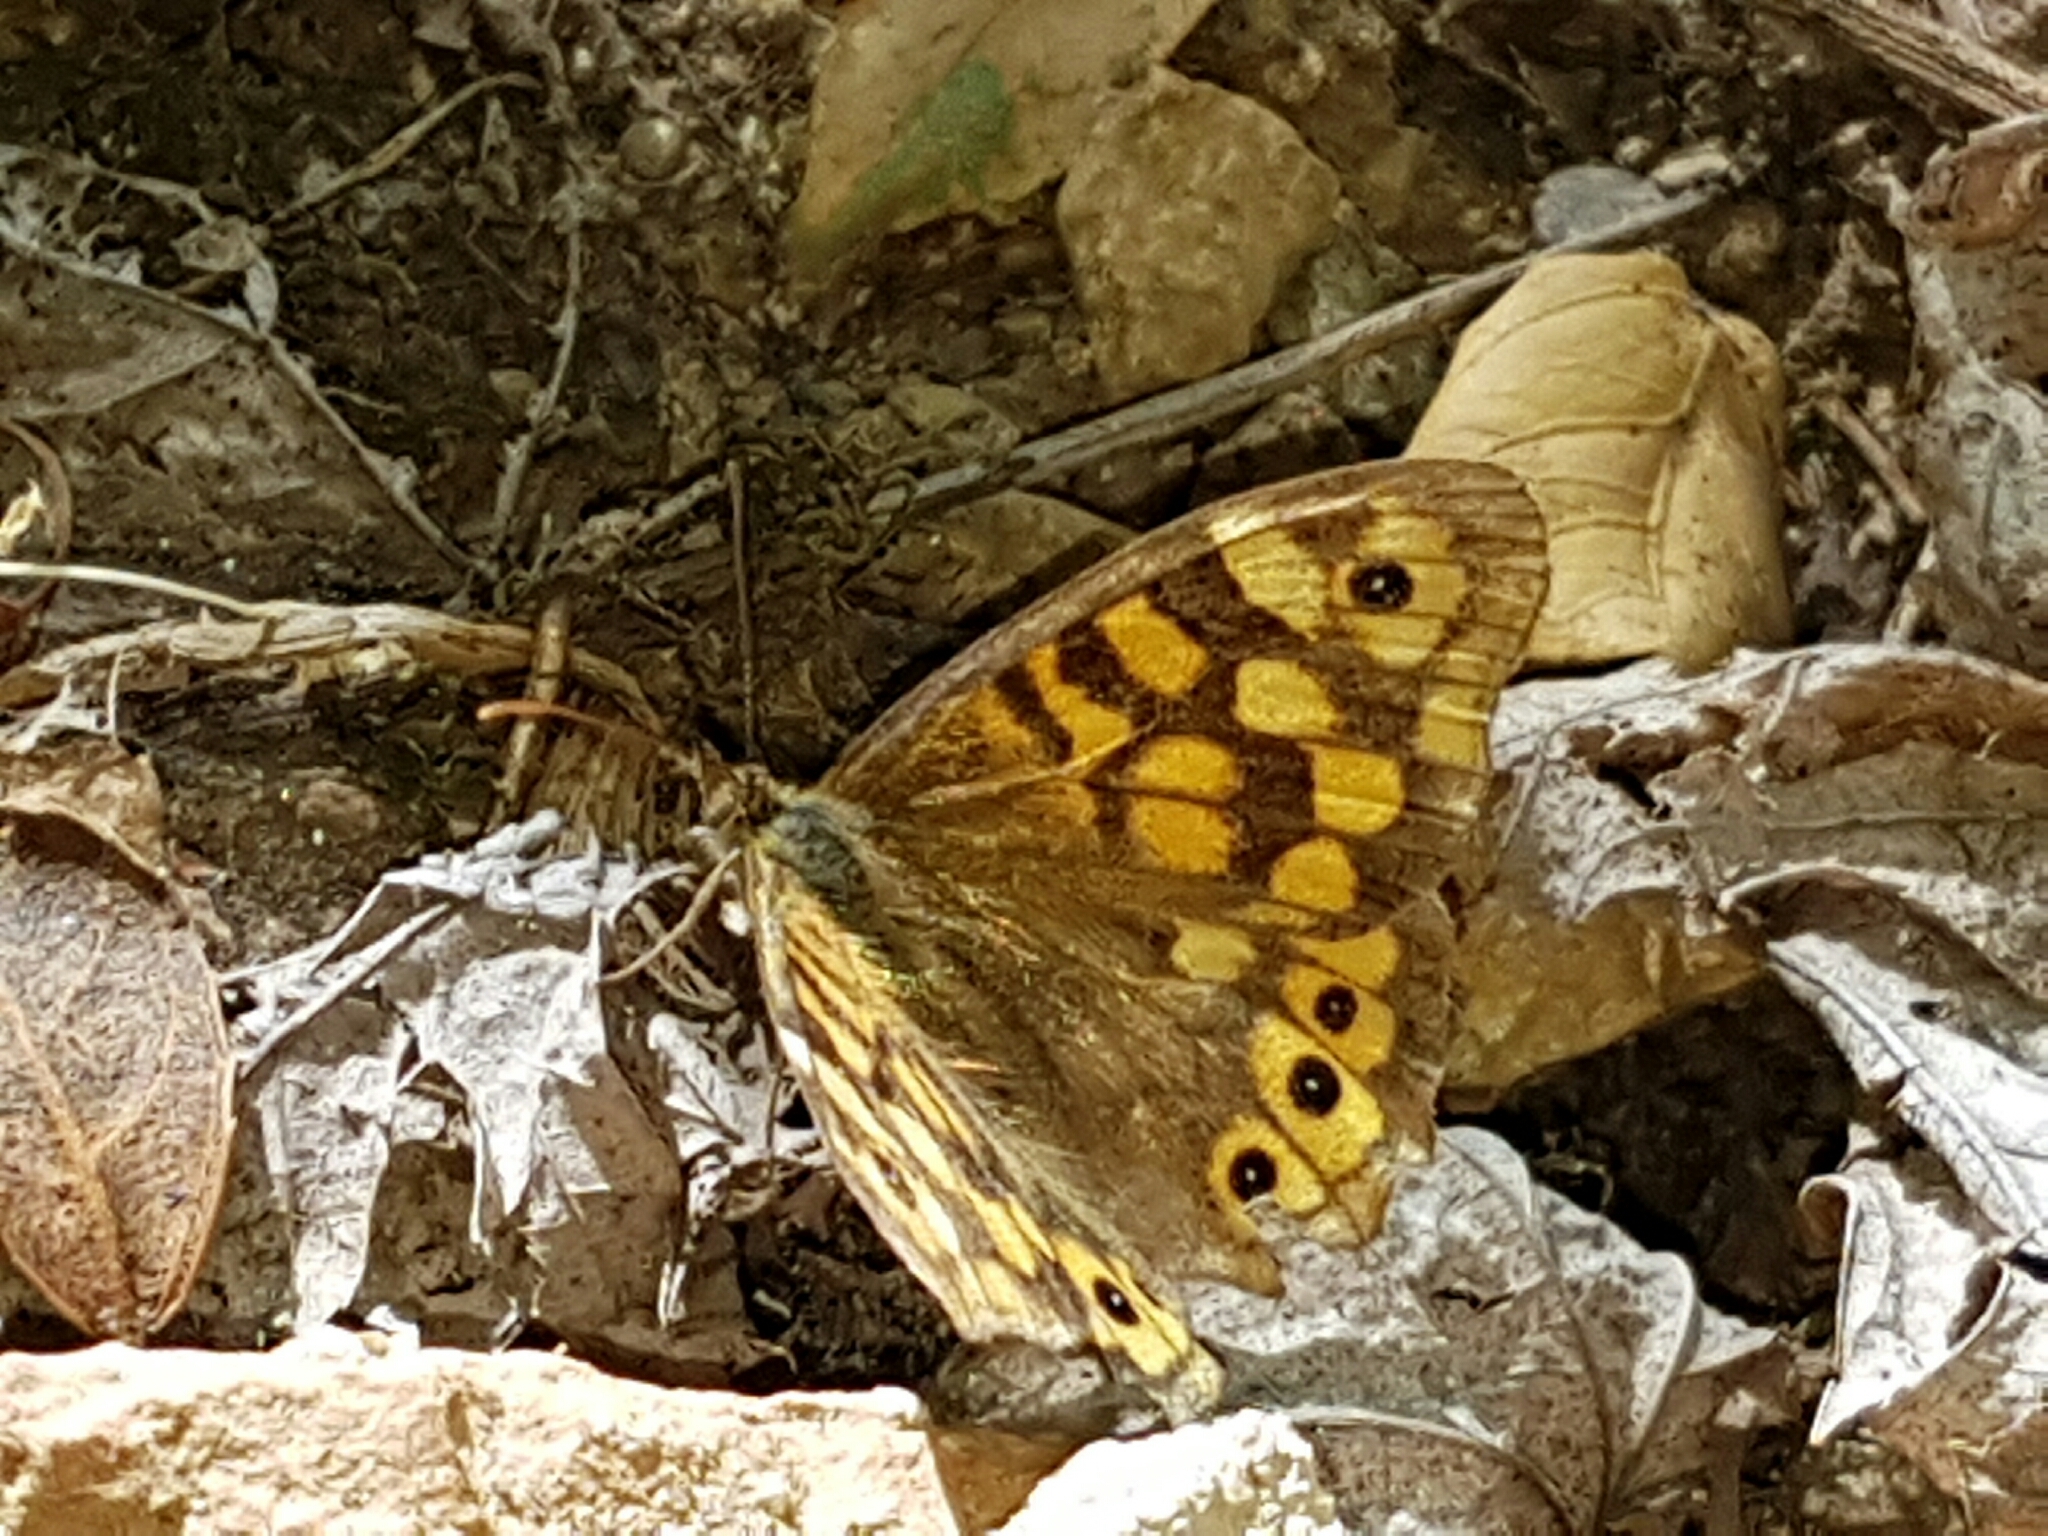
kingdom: Animalia
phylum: Arthropoda
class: Insecta
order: Lepidoptera
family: Nymphalidae
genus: Pararge
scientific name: Pararge aegeria
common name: Speckled wood
